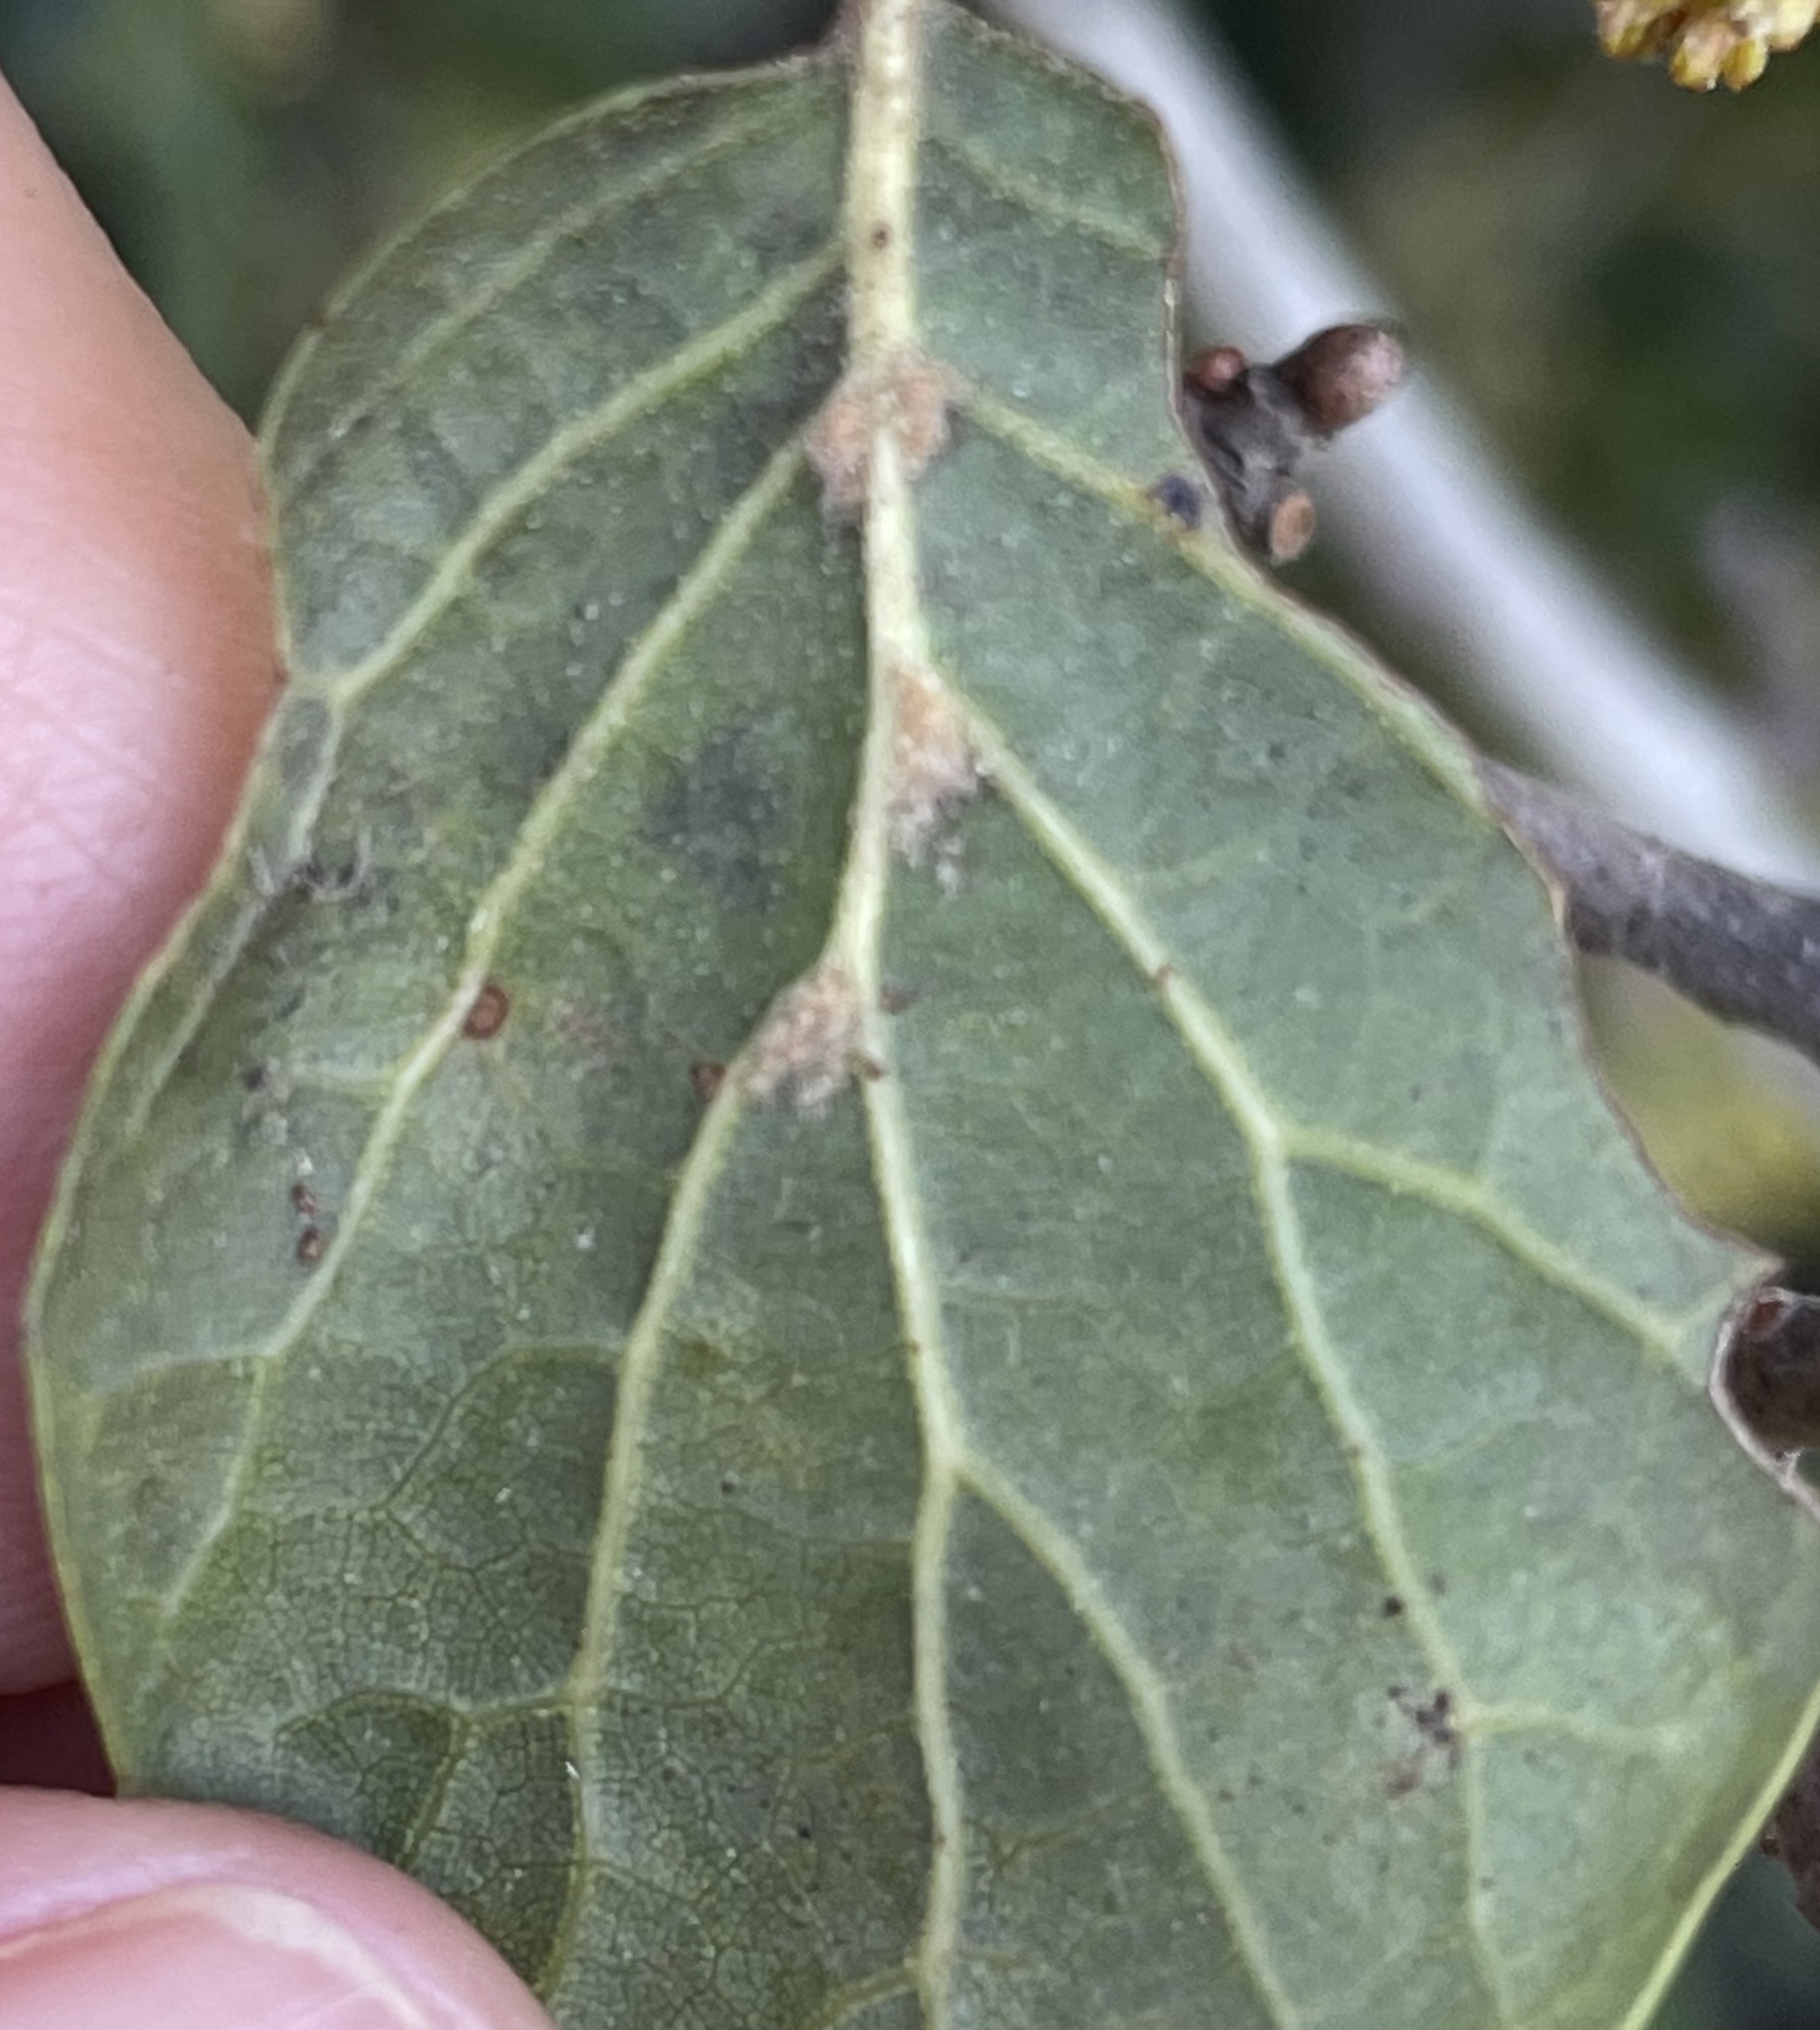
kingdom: Plantae
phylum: Tracheophyta
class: Magnoliopsida
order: Fagales
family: Fagaceae
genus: Quercus
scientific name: Quercus agrifolia
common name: California live oak
